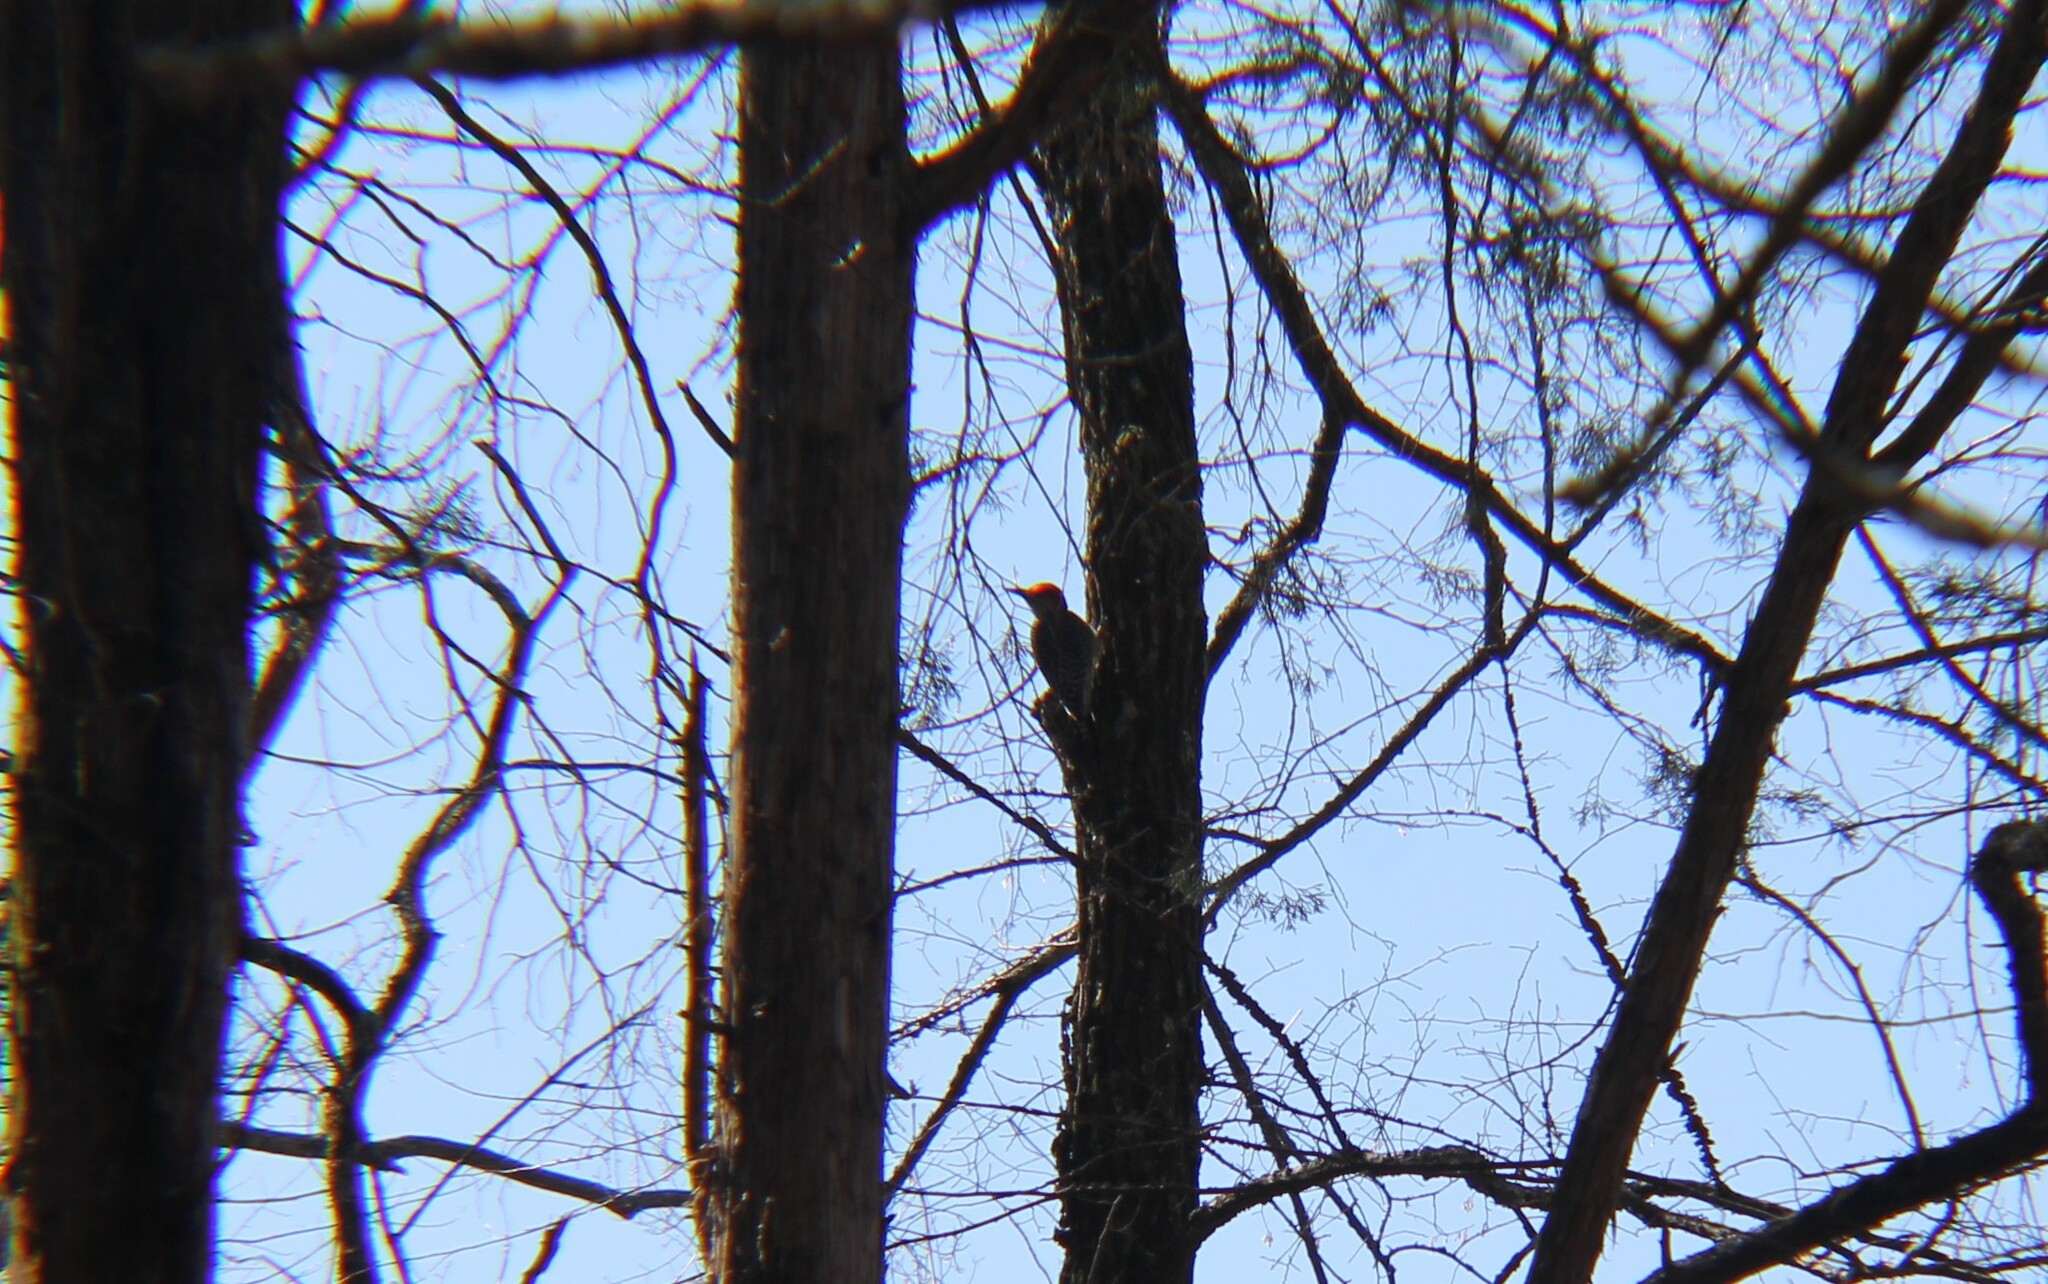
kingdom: Animalia
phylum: Chordata
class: Aves
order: Piciformes
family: Picidae
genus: Melanerpes
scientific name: Melanerpes carolinus
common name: Red-bellied woodpecker
